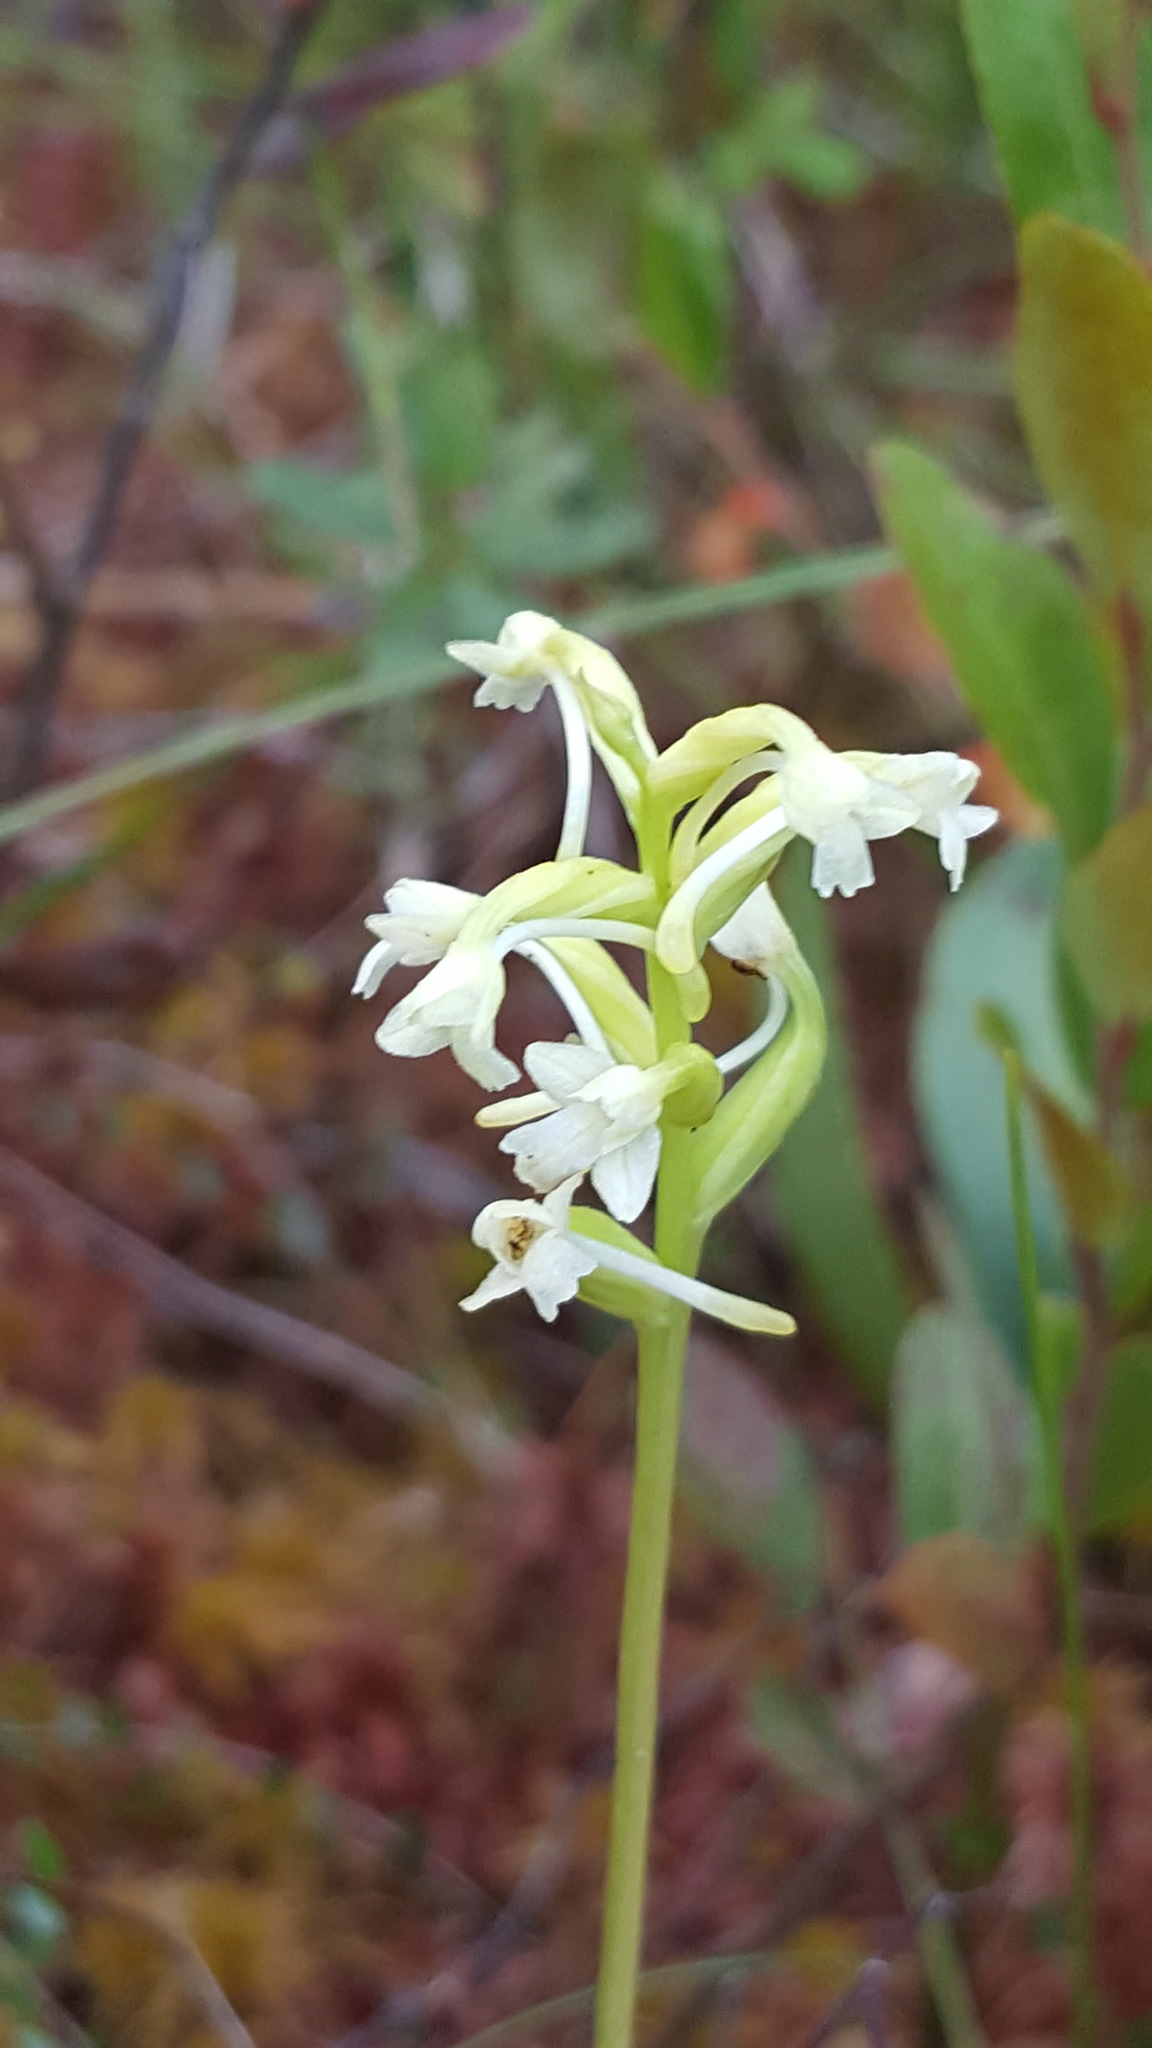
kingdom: Plantae
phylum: Tracheophyta
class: Liliopsida
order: Asparagales
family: Orchidaceae
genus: Platanthera
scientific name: Platanthera clavellata
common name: Club-spur orchid
